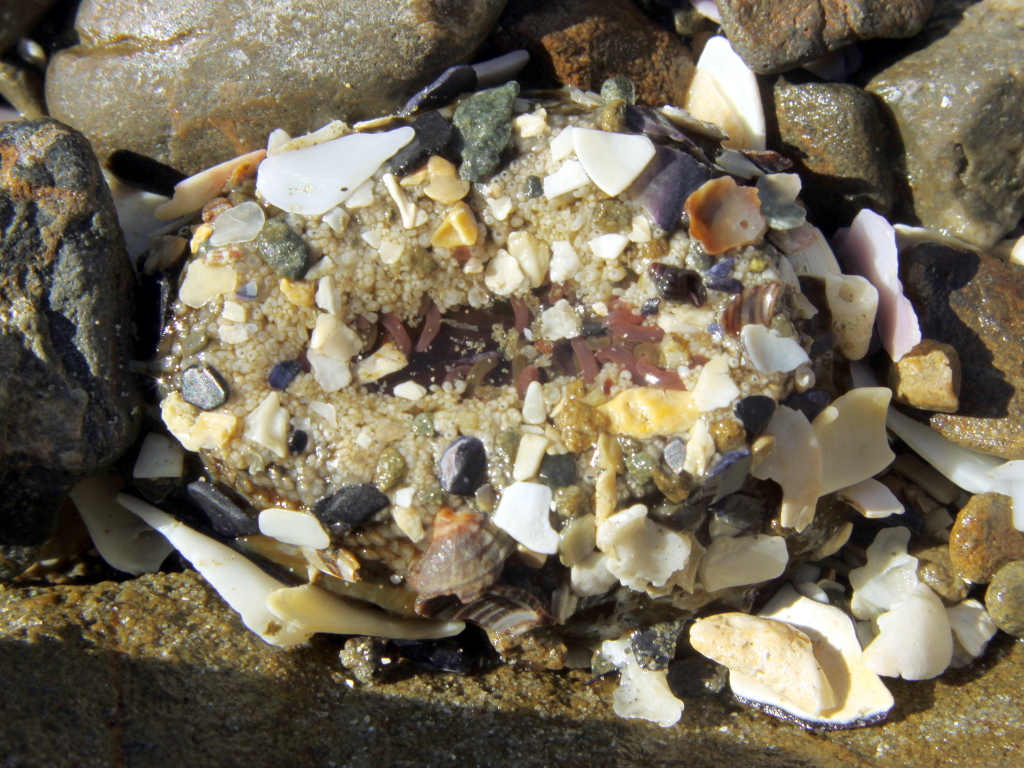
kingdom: Animalia
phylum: Cnidaria
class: Anthozoa
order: Actiniaria
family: Actiniidae
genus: Oulactis
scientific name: Oulactis muscosa
